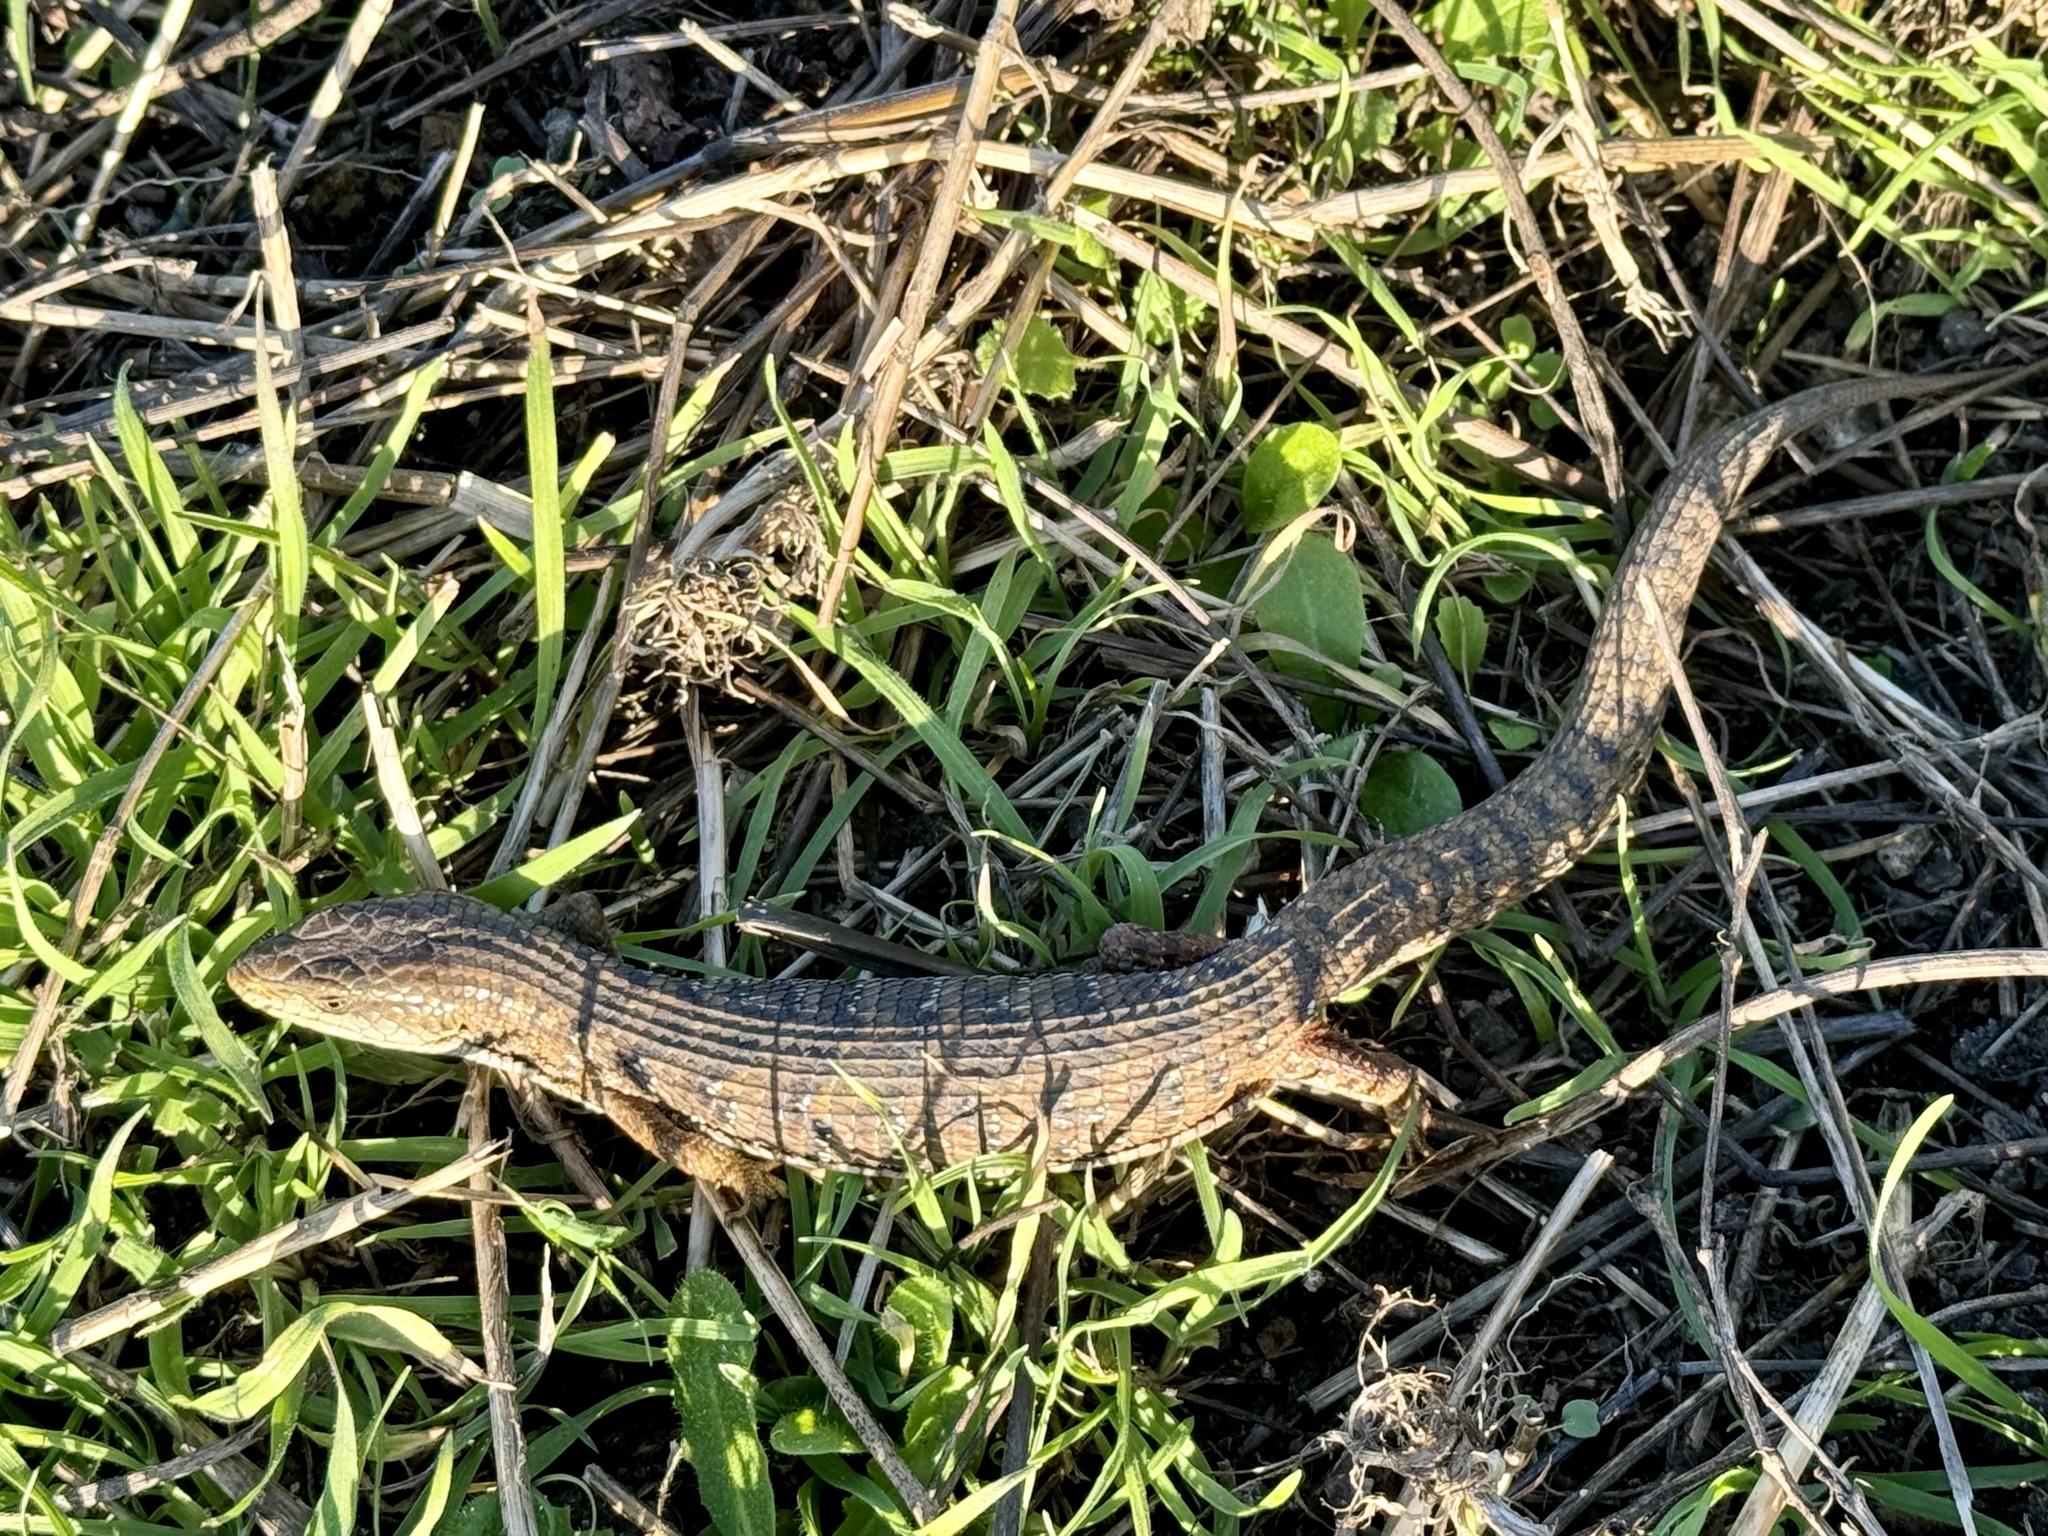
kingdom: Animalia
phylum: Chordata
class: Squamata
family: Anguidae
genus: Elgaria
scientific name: Elgaria multicarinata
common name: Southern alligator lizard
